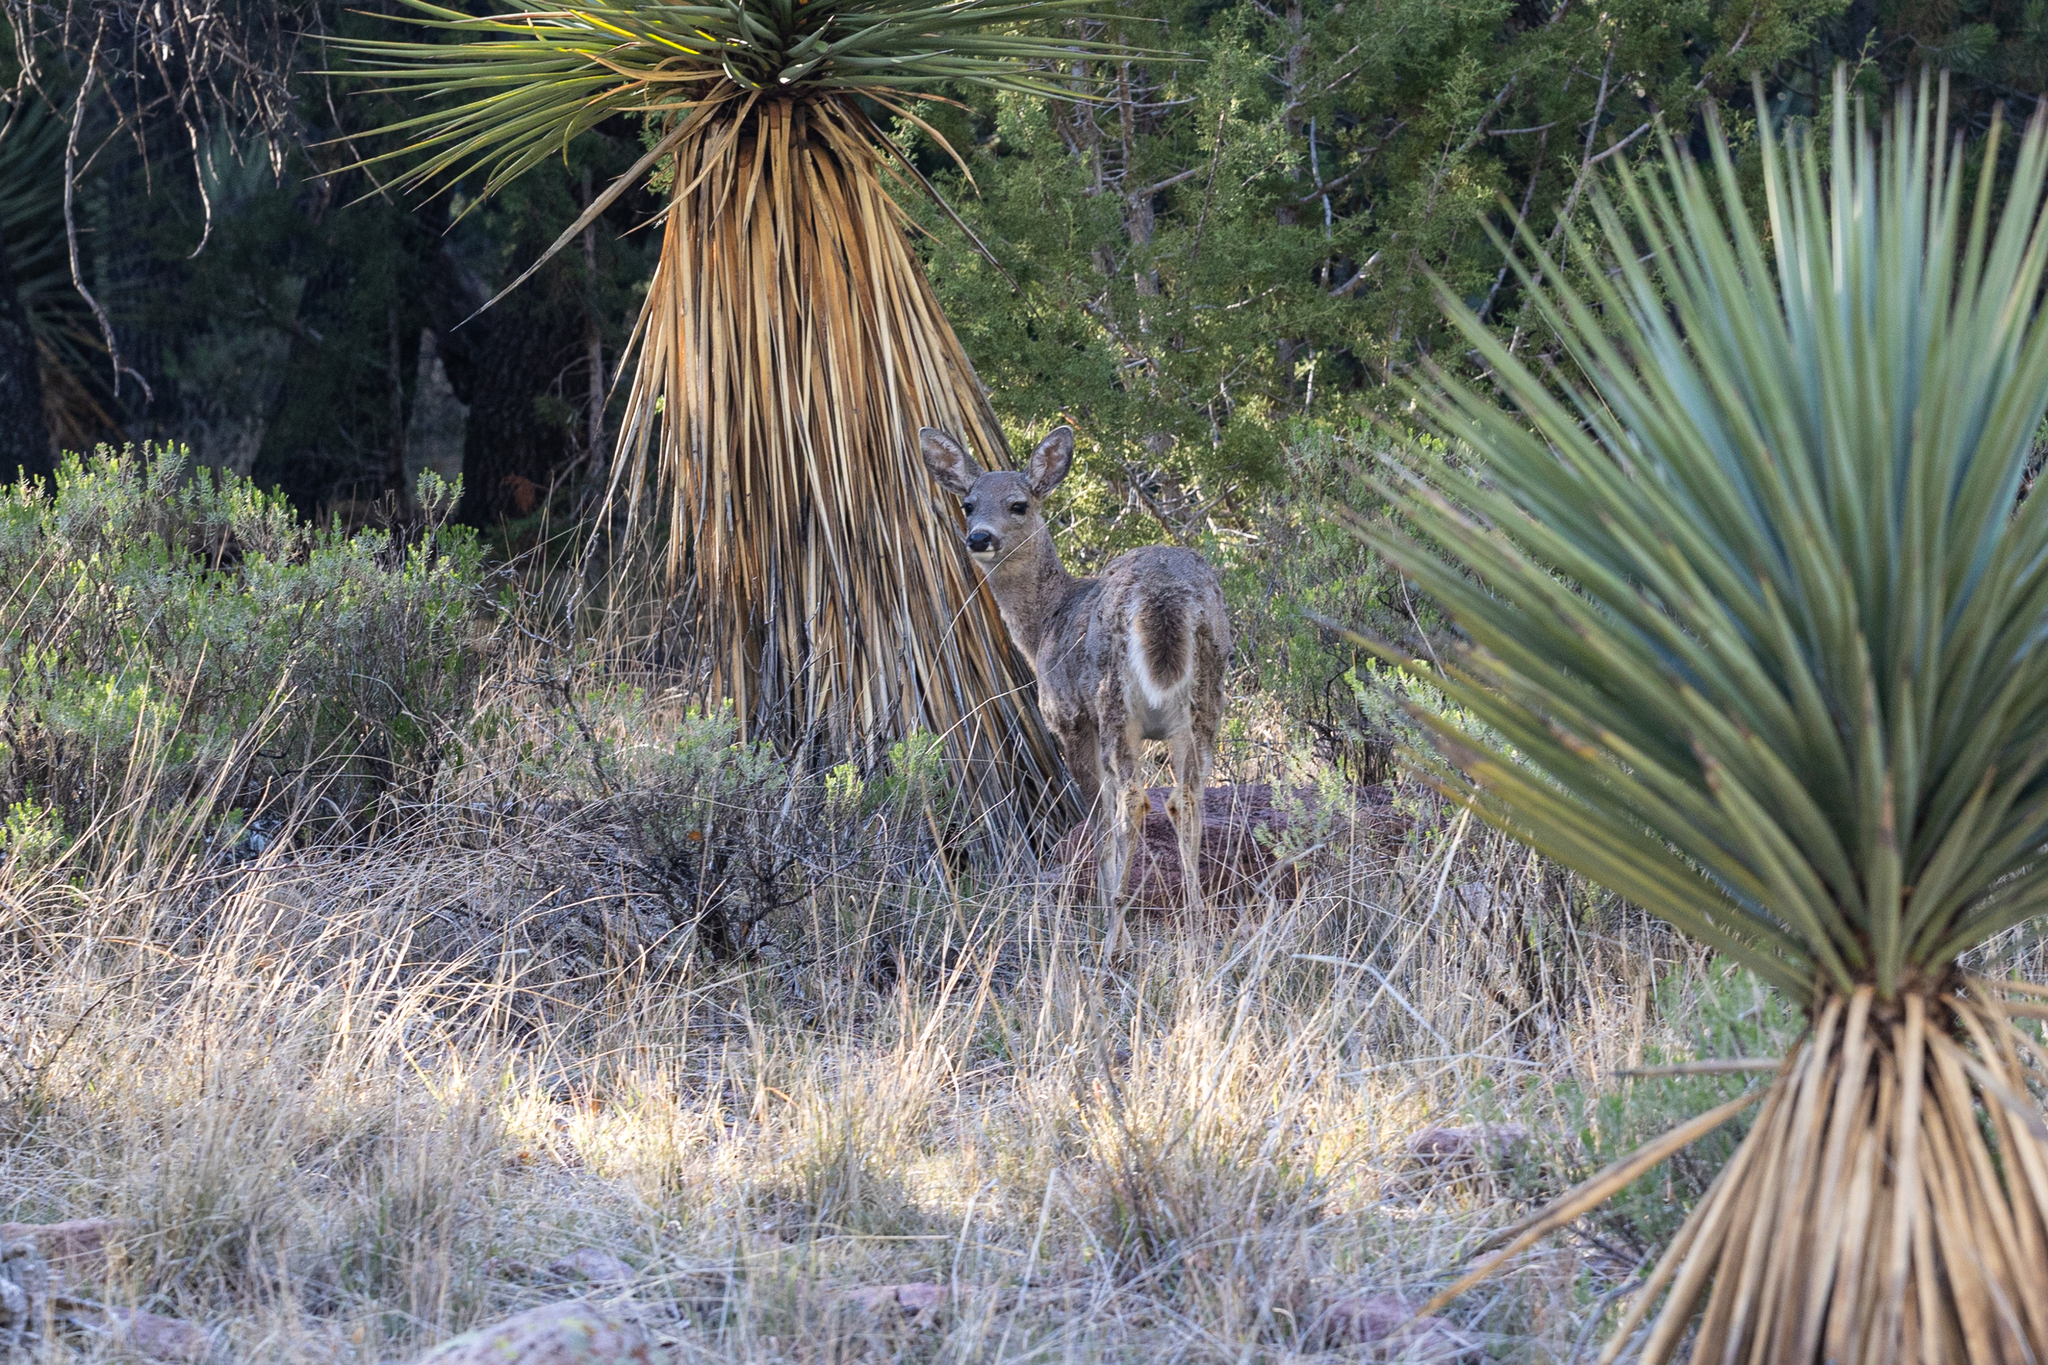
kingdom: Animalia
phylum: Chordata
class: Mammalia
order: Artiodactyla
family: Cervidae
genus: Odocoileus
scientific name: Odocoileus virginianus
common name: White-tailed deer
